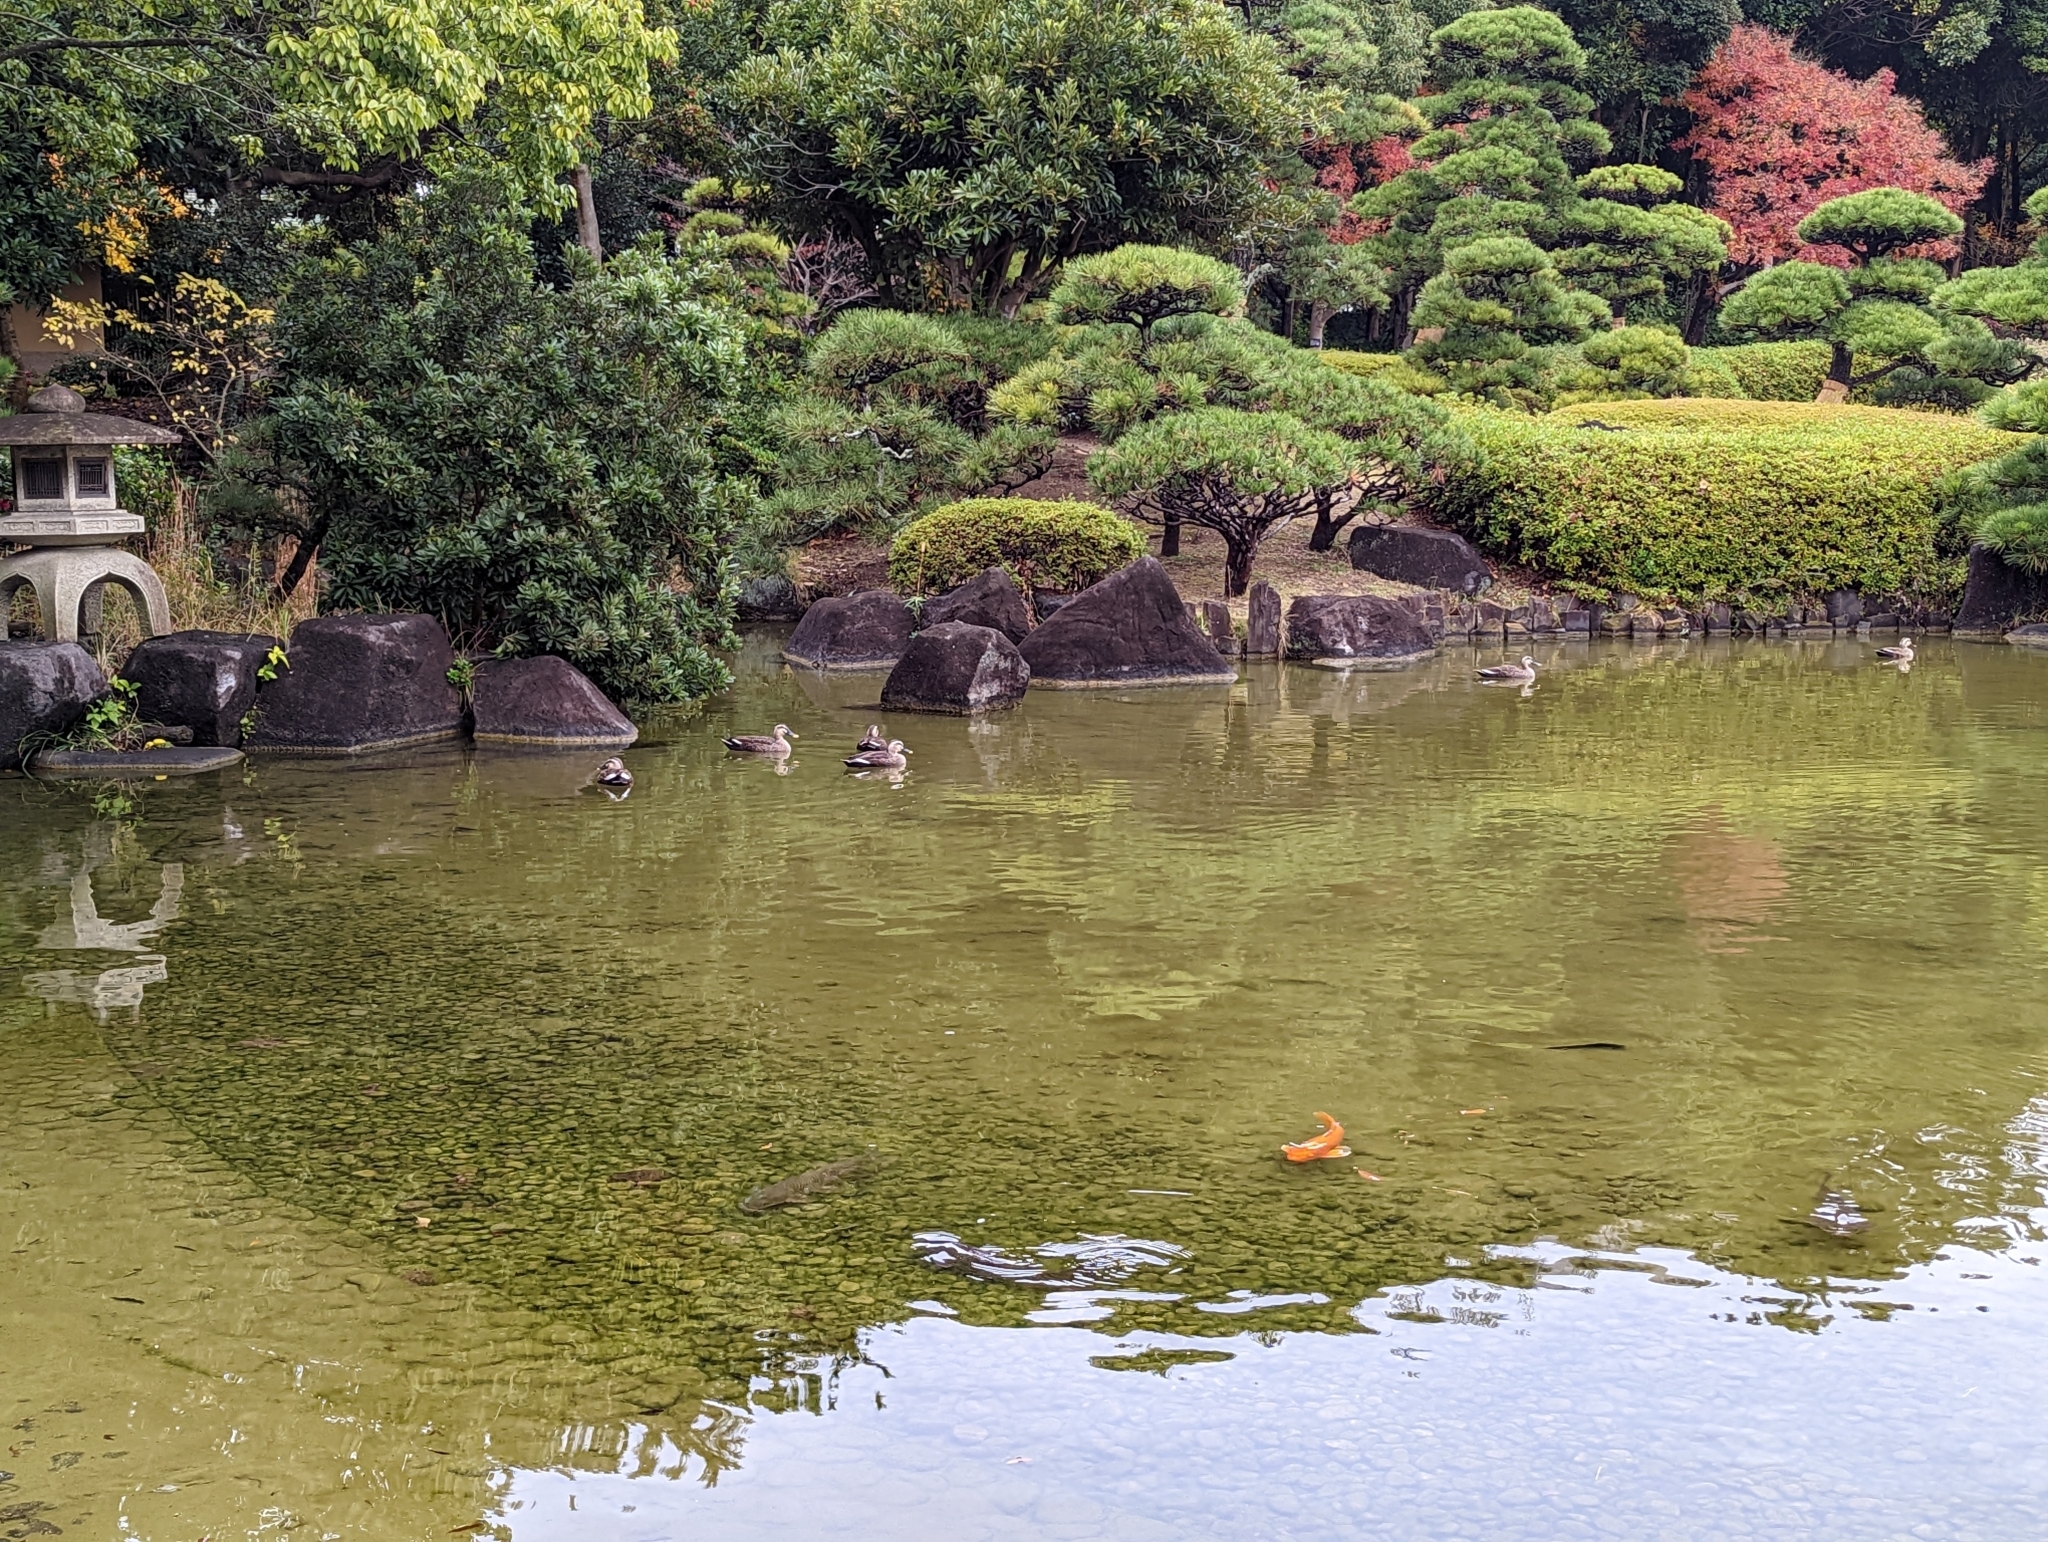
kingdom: Animalia
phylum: Chordata
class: Aves
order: Anseriformes
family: Anatidae
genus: Anas
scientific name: Anas zonorhyncha
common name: Eastern spot-billed duck
